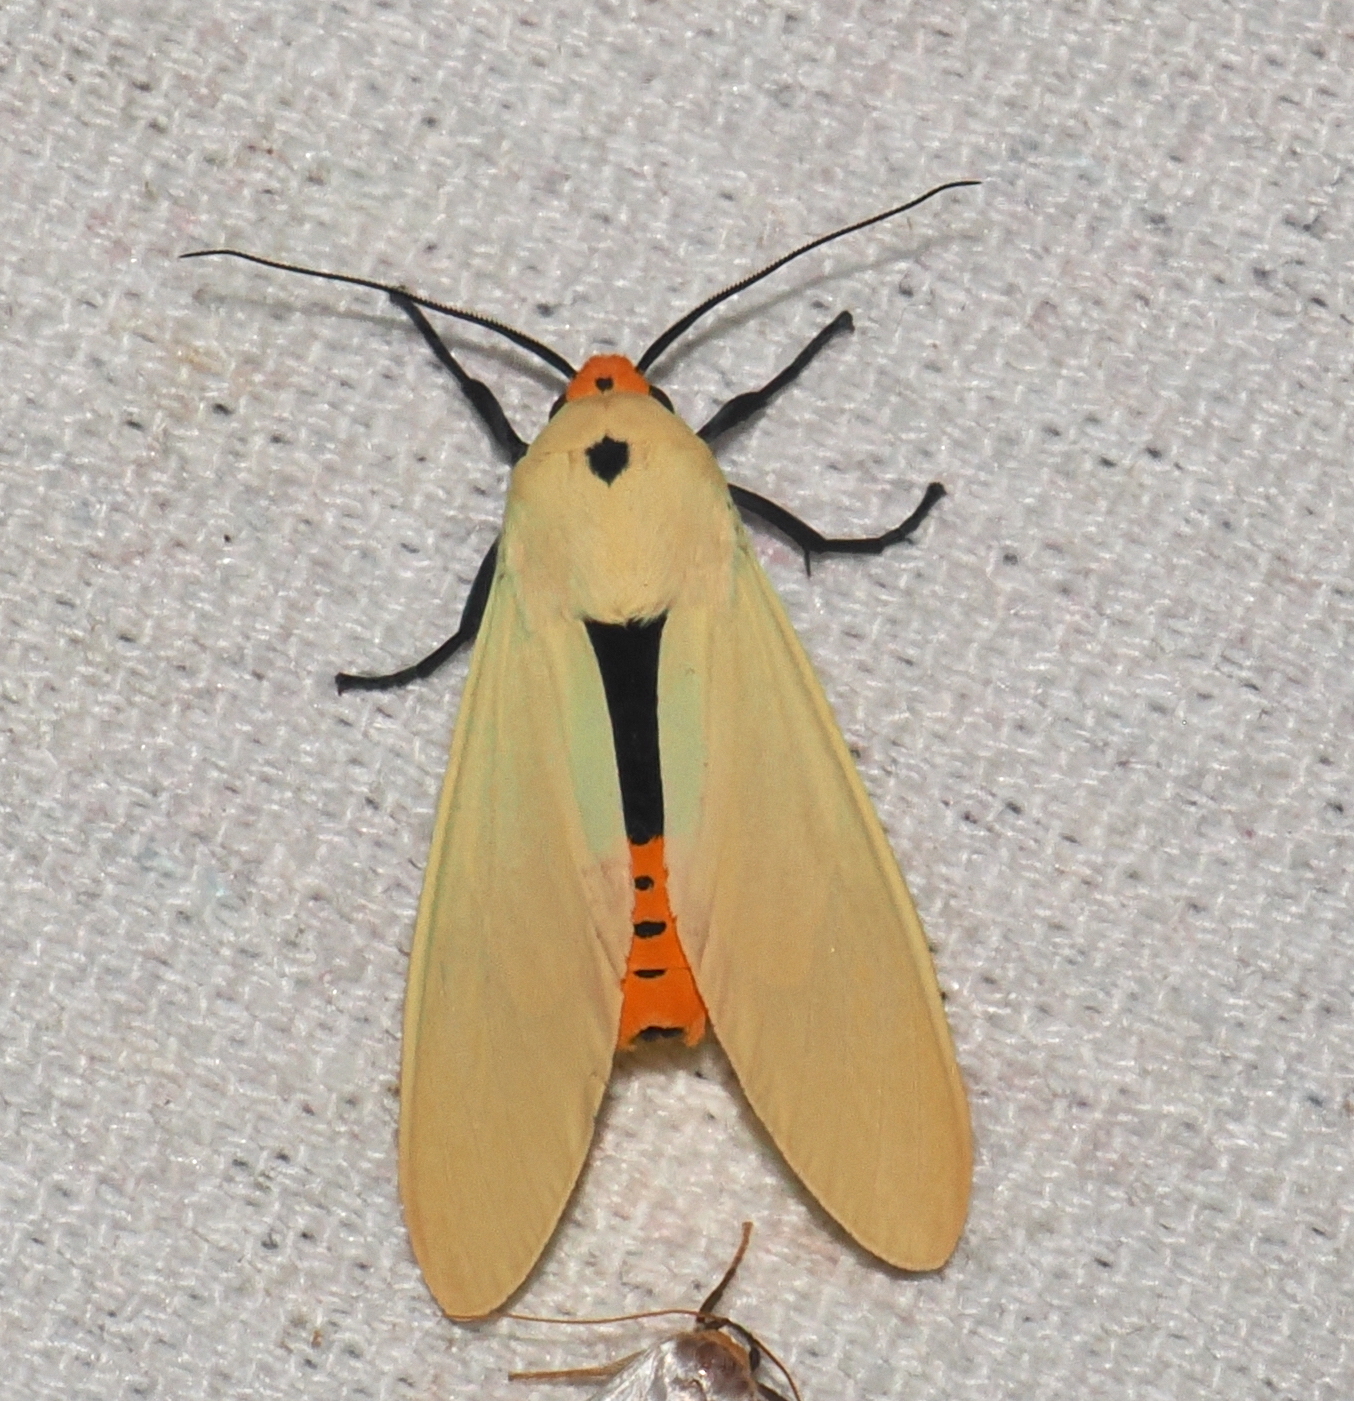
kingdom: Animalia
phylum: Arthropoda
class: Insecta
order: Lepidoptera
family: Erebidae
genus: Selenarctia
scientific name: Selenarctia flavidorsata
